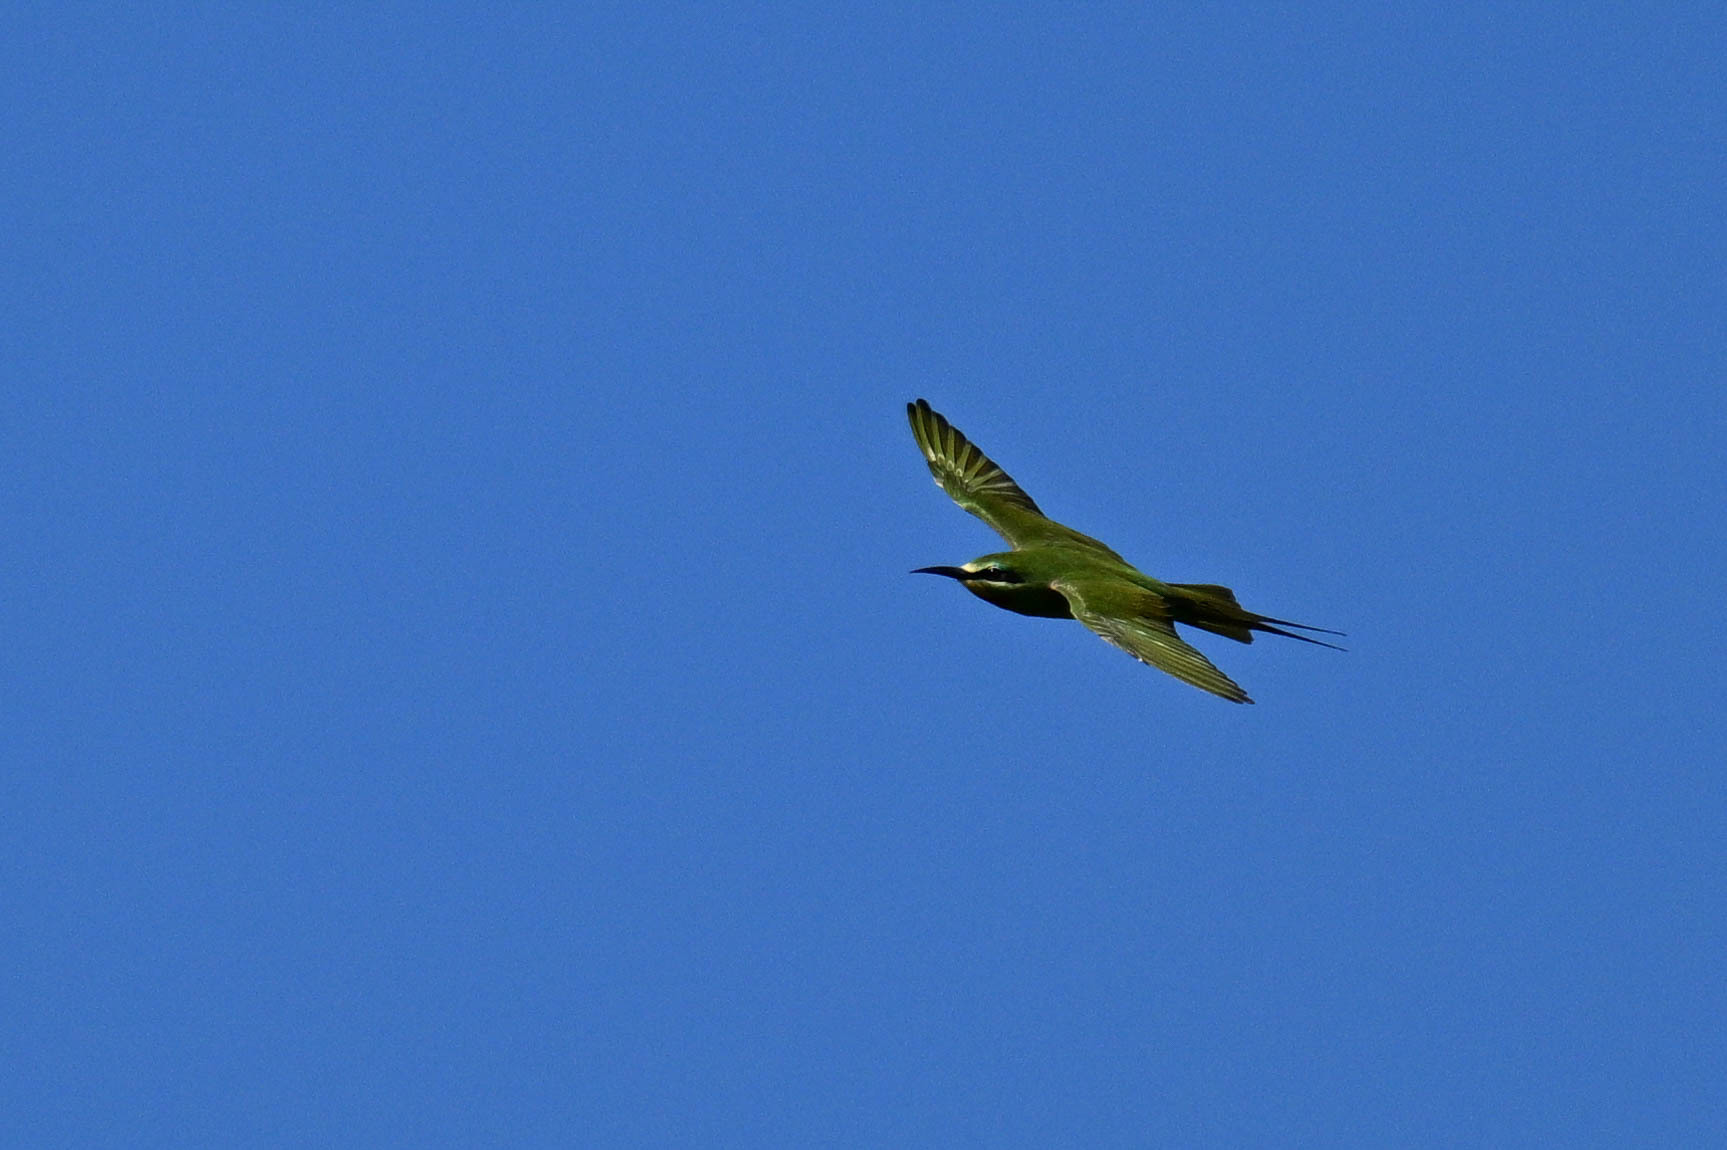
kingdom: Animalia
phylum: Chordata
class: Aves
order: Coraciiformes
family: Meropidae
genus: Merops
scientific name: Merops persicus
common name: Blue-cheeked bee-eater
